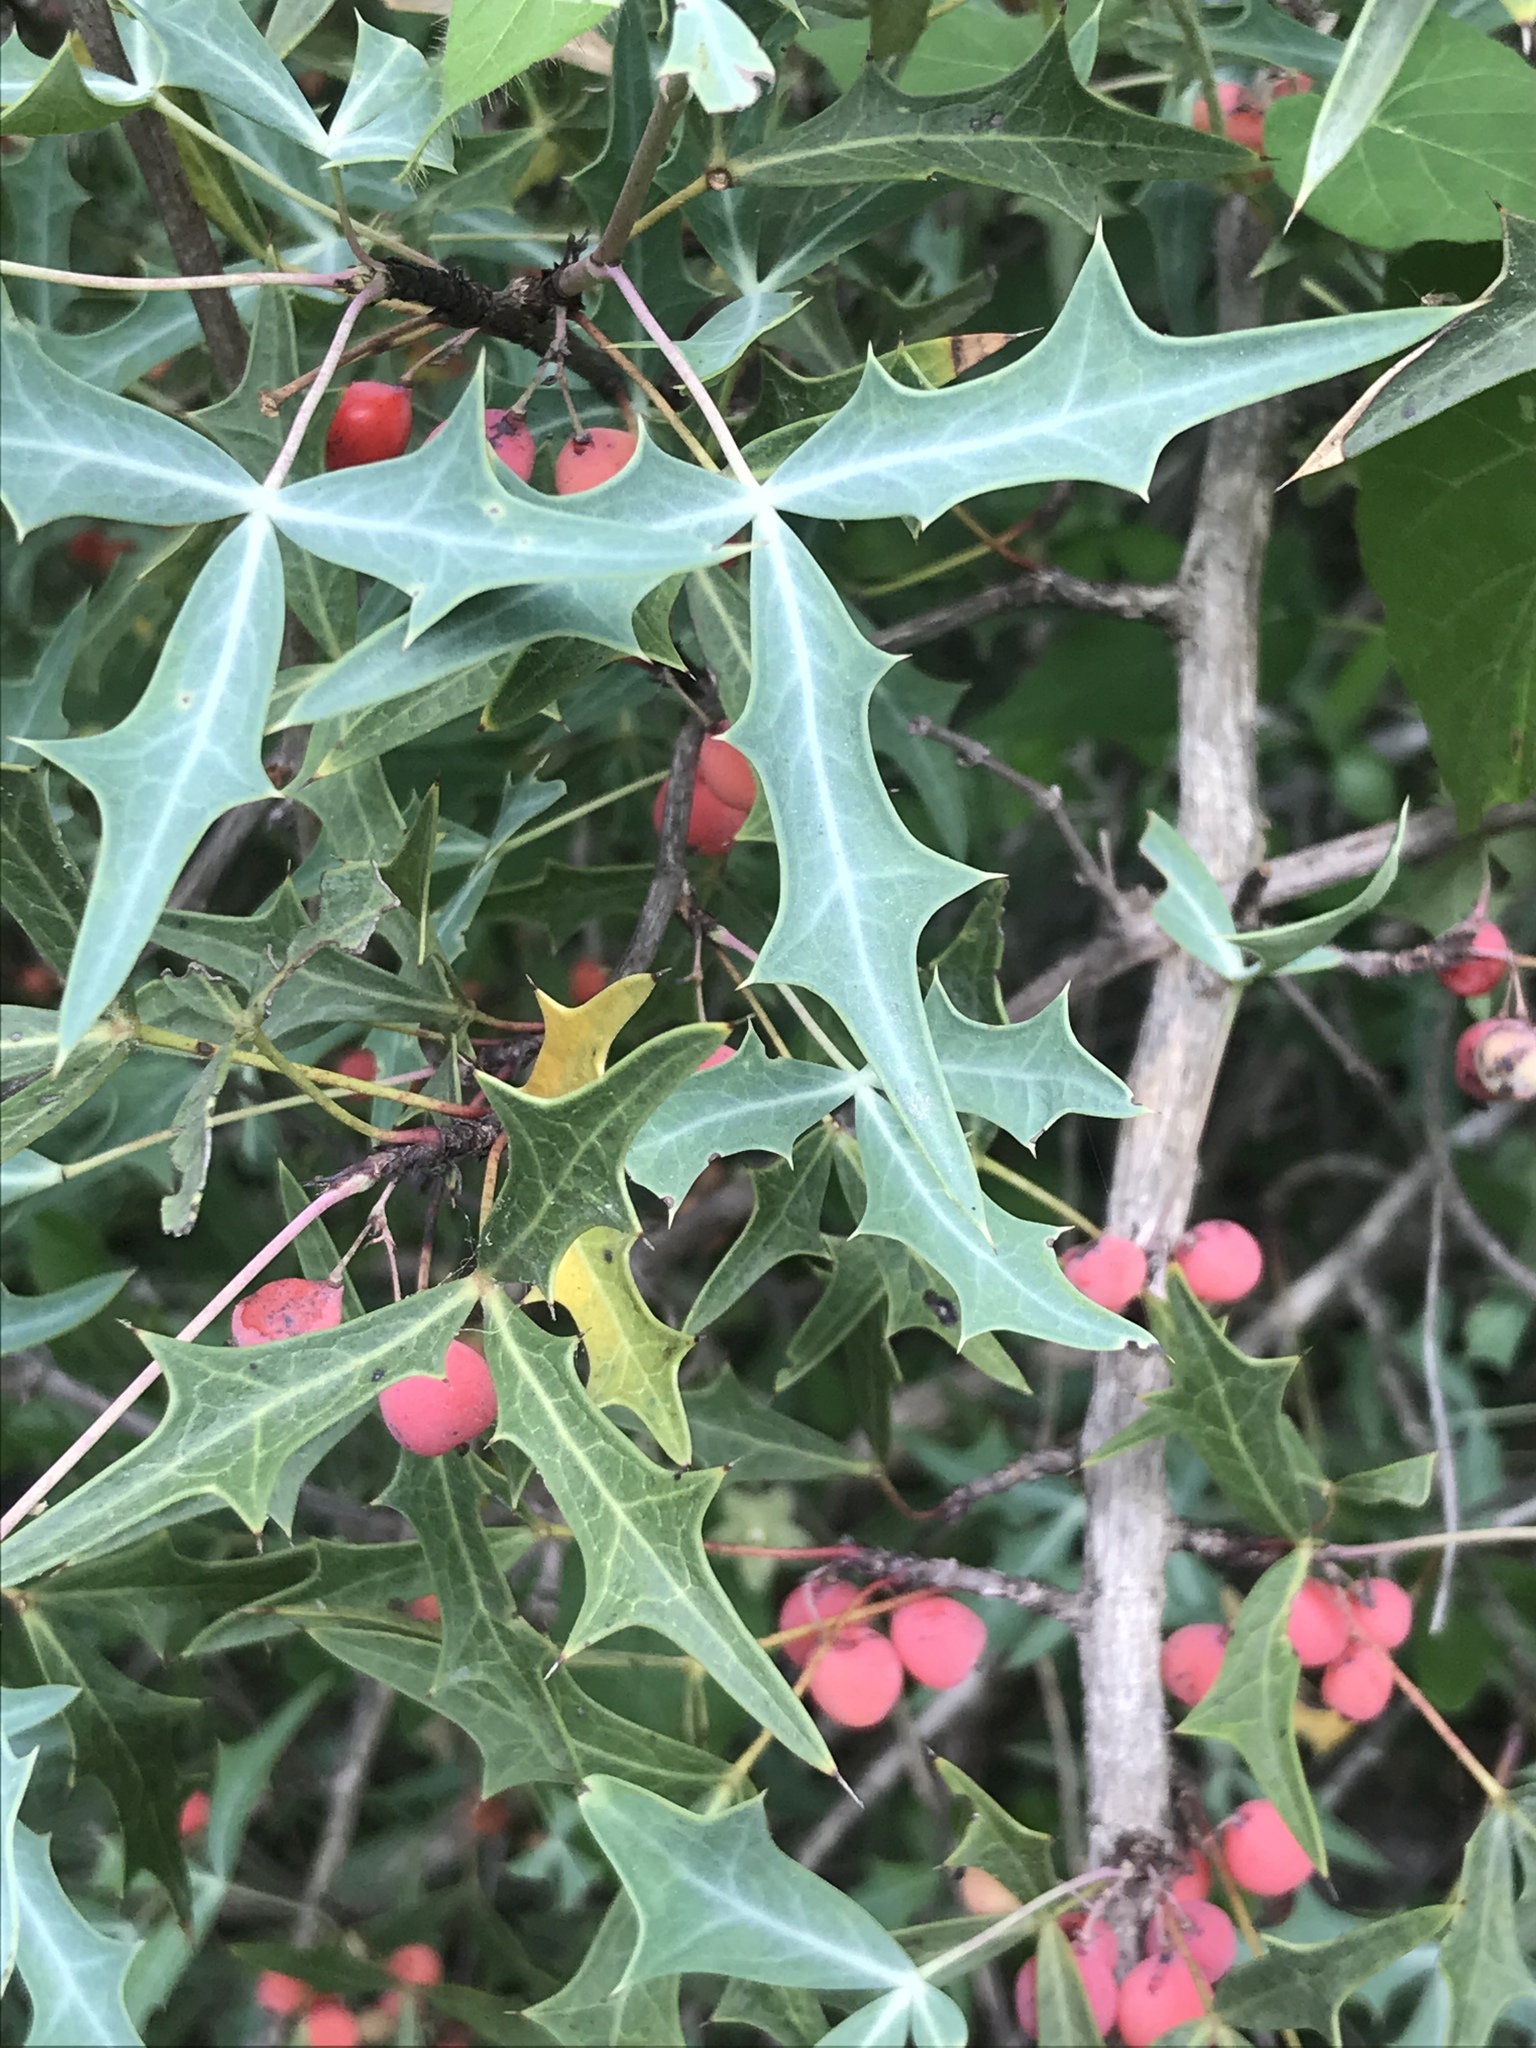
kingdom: Plantae
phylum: Tracheophyta
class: Magnoliopsida
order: Ranunculales
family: Berberidaceae
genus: Alloberberis
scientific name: Alloberberis trifoliolata
